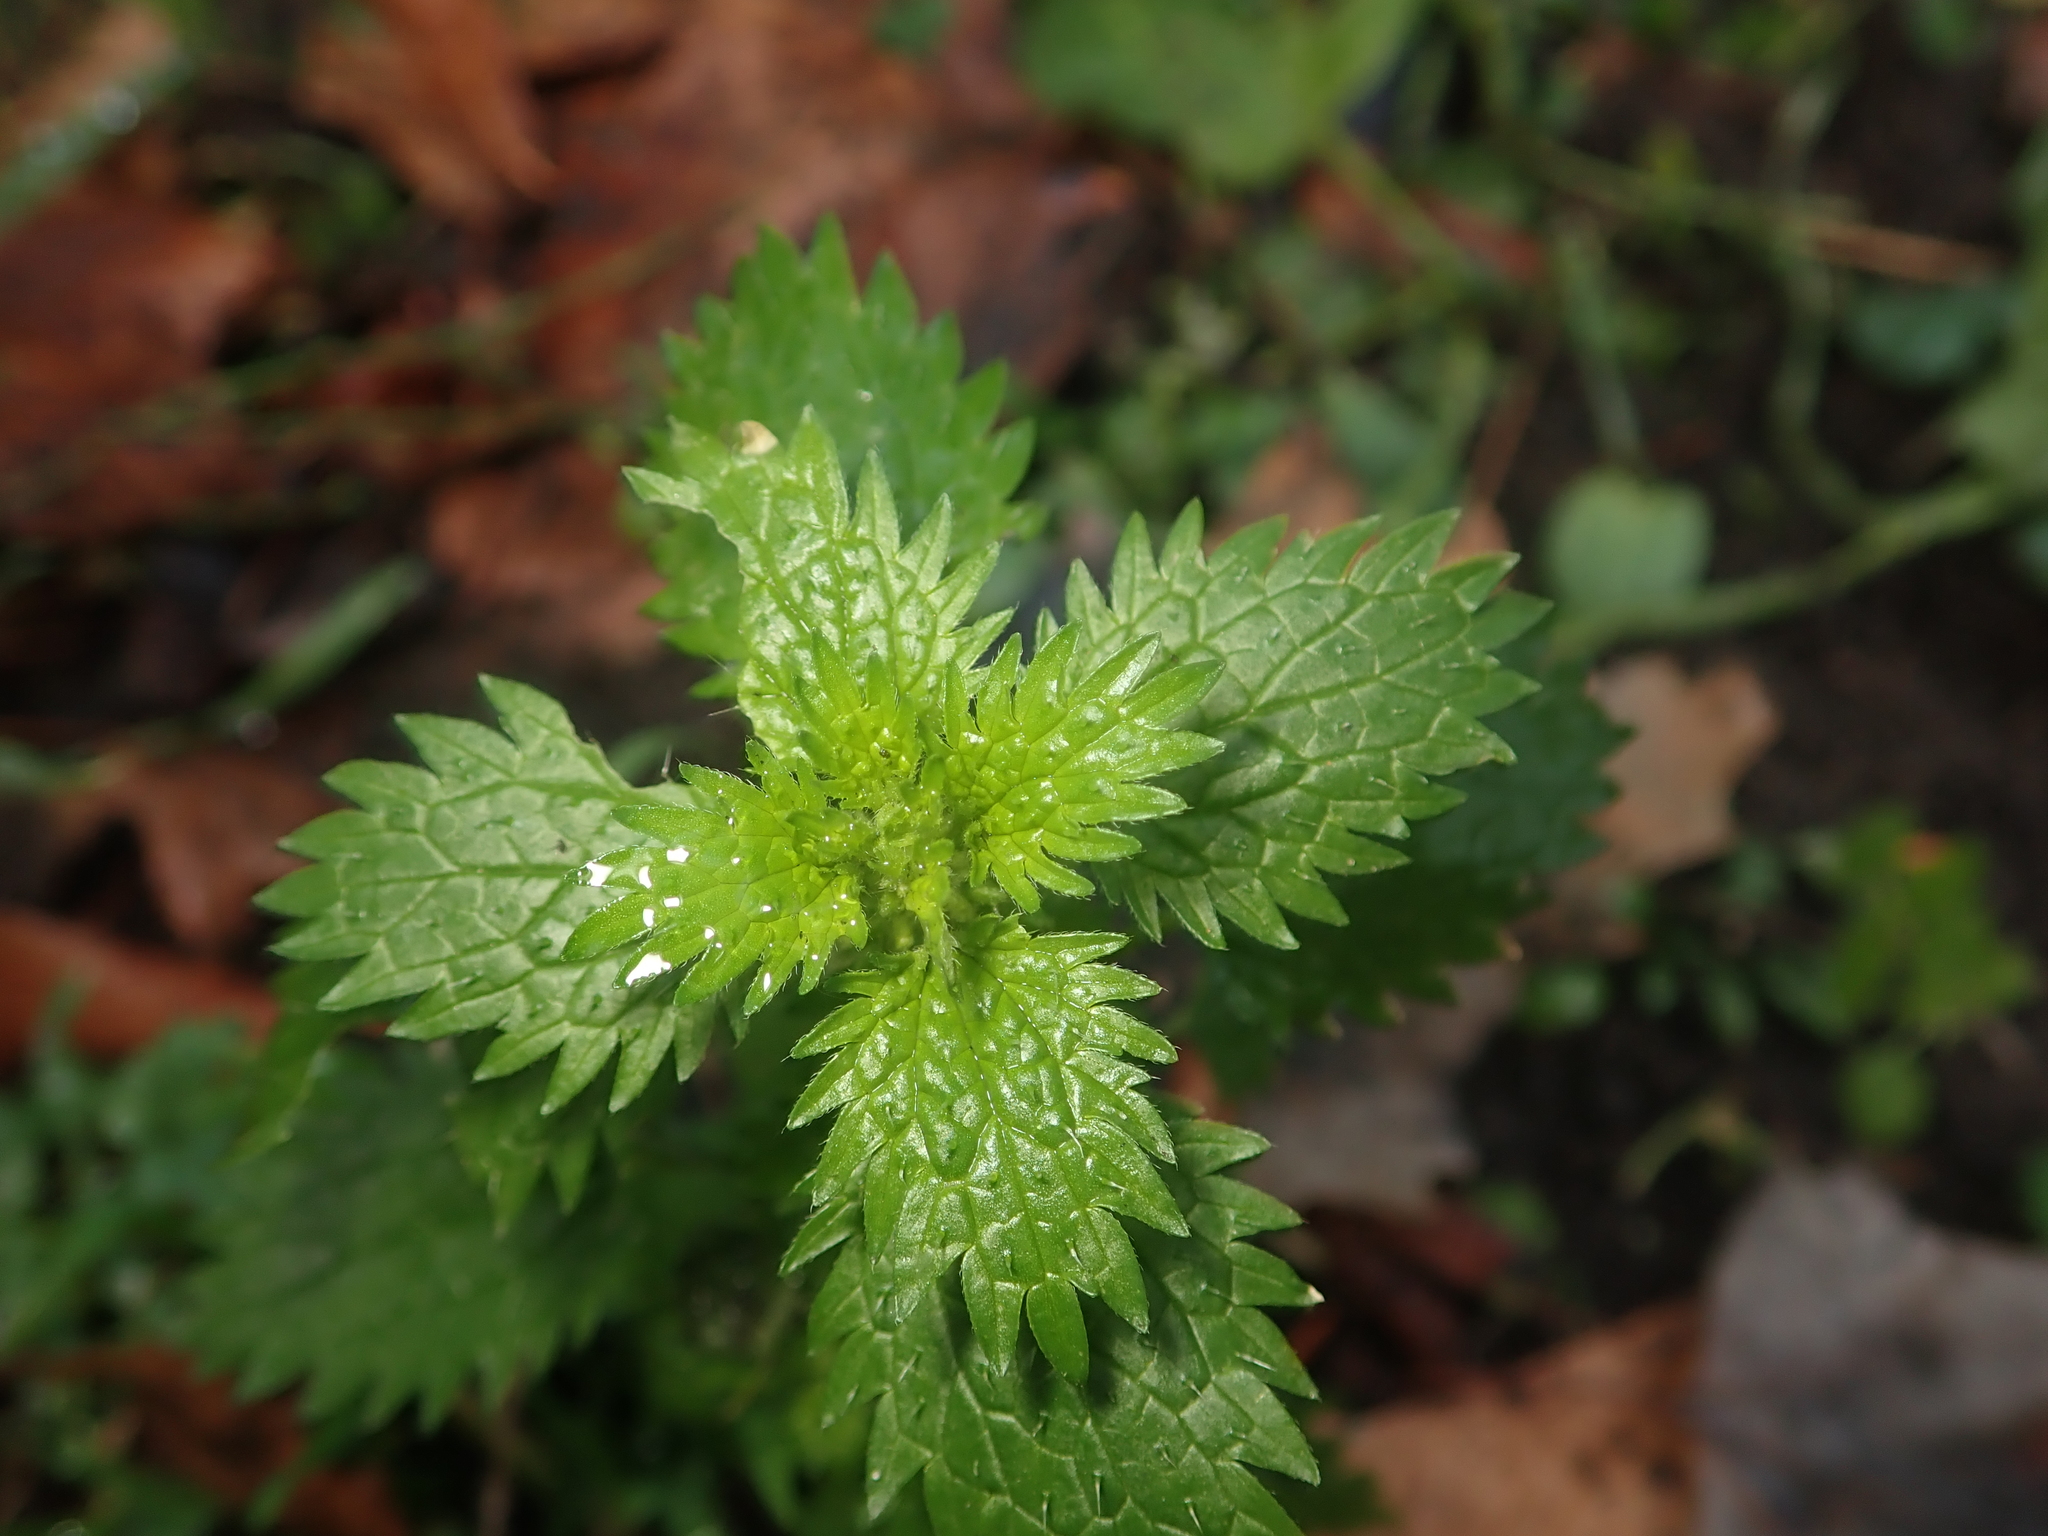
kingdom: Plantae
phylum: Tracheophyta
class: Magnoliopsida
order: Rosales
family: Urticaceae
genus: Urtica
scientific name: Urtica urens
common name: Dwarf nettle
